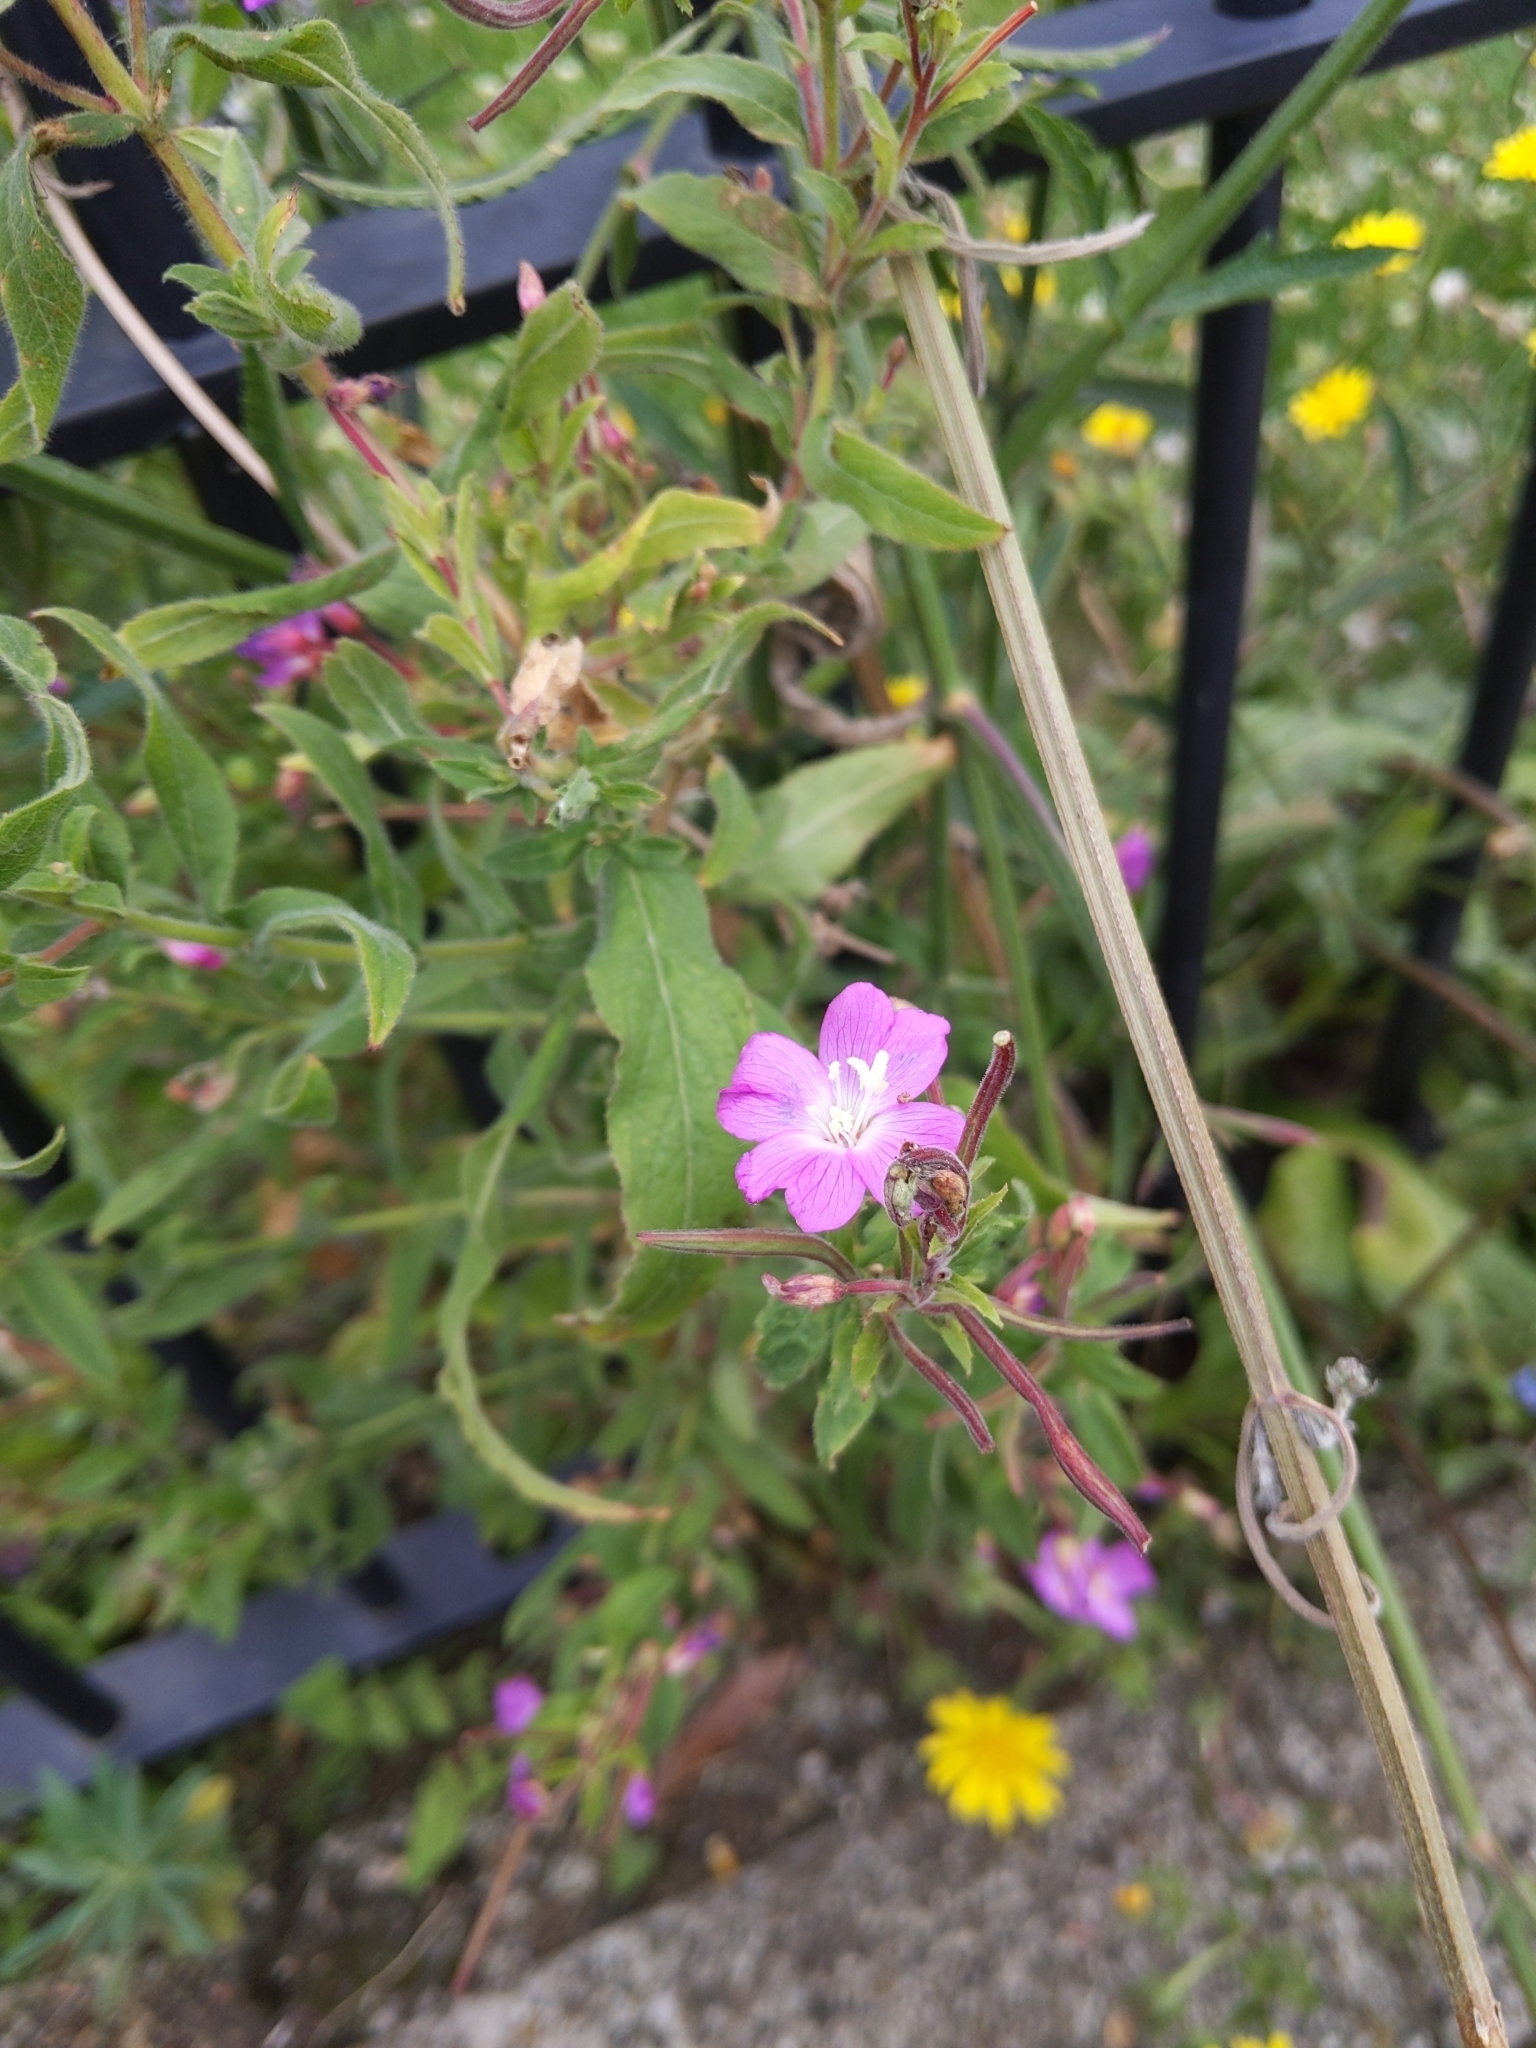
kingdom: Plantae
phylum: Tracheophyta
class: Magnoliopsida
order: Myrtales
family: Onagraceae
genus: Epilobium
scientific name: Epilobium hirsutum
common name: Great willowherb
